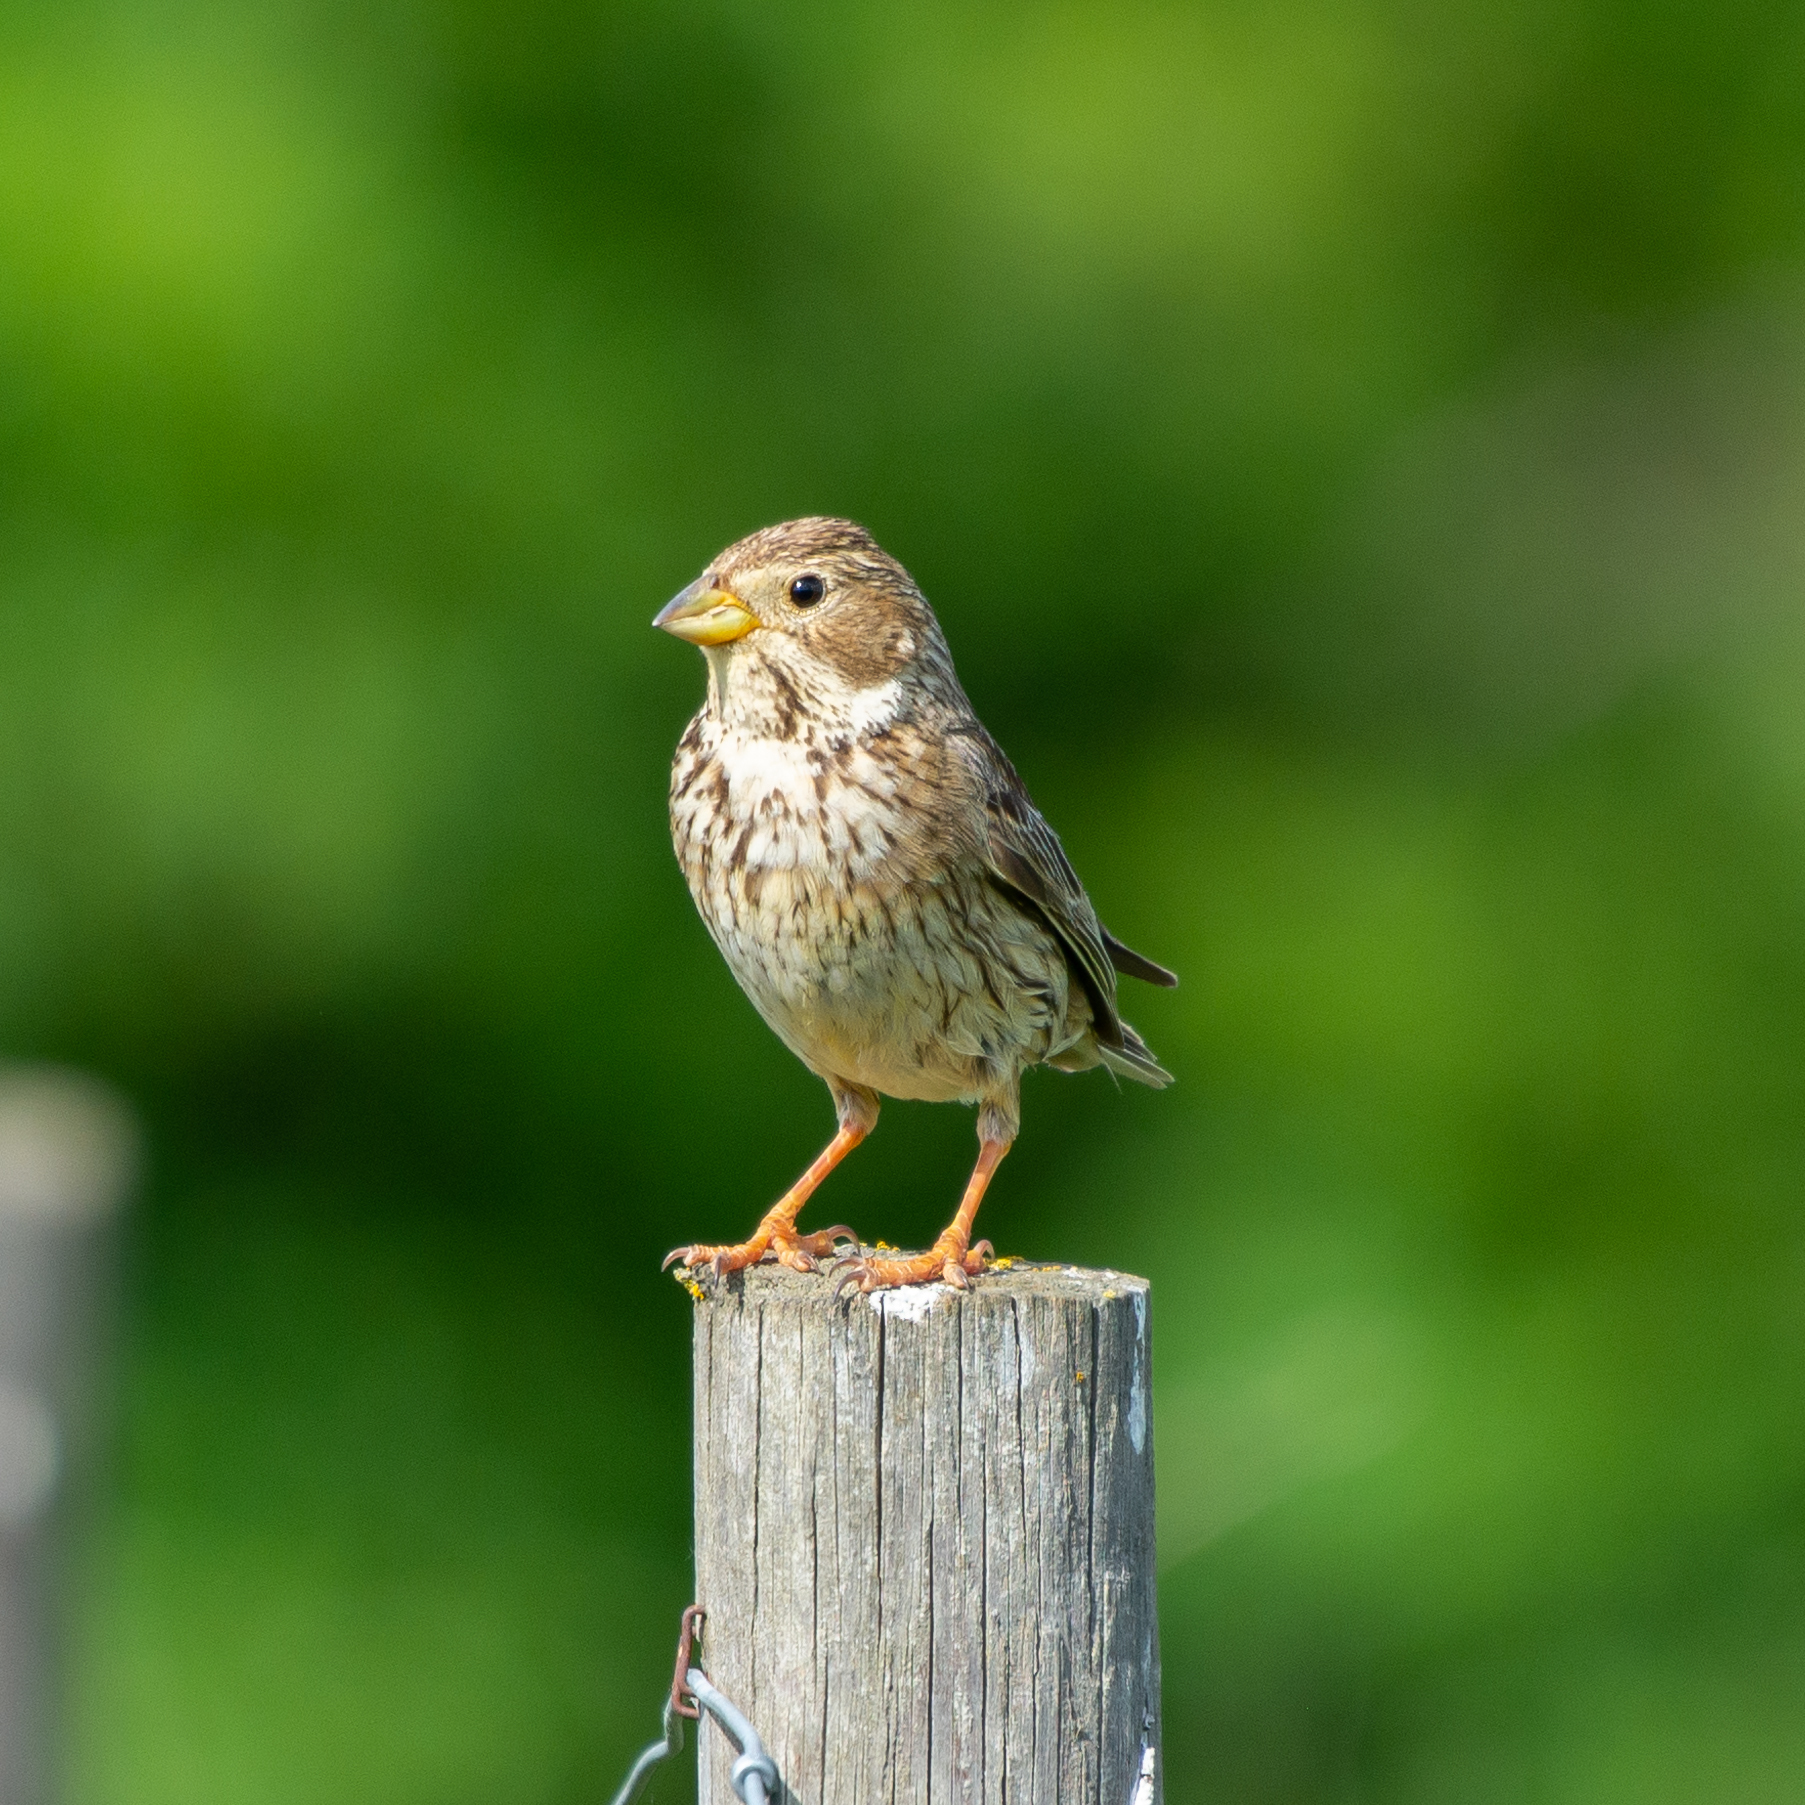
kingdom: Animalia
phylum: Chordata
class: Aves
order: Passeriformes
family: Emberizidae
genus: Emberiza
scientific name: Emberiza calandra
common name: Corn bunting
